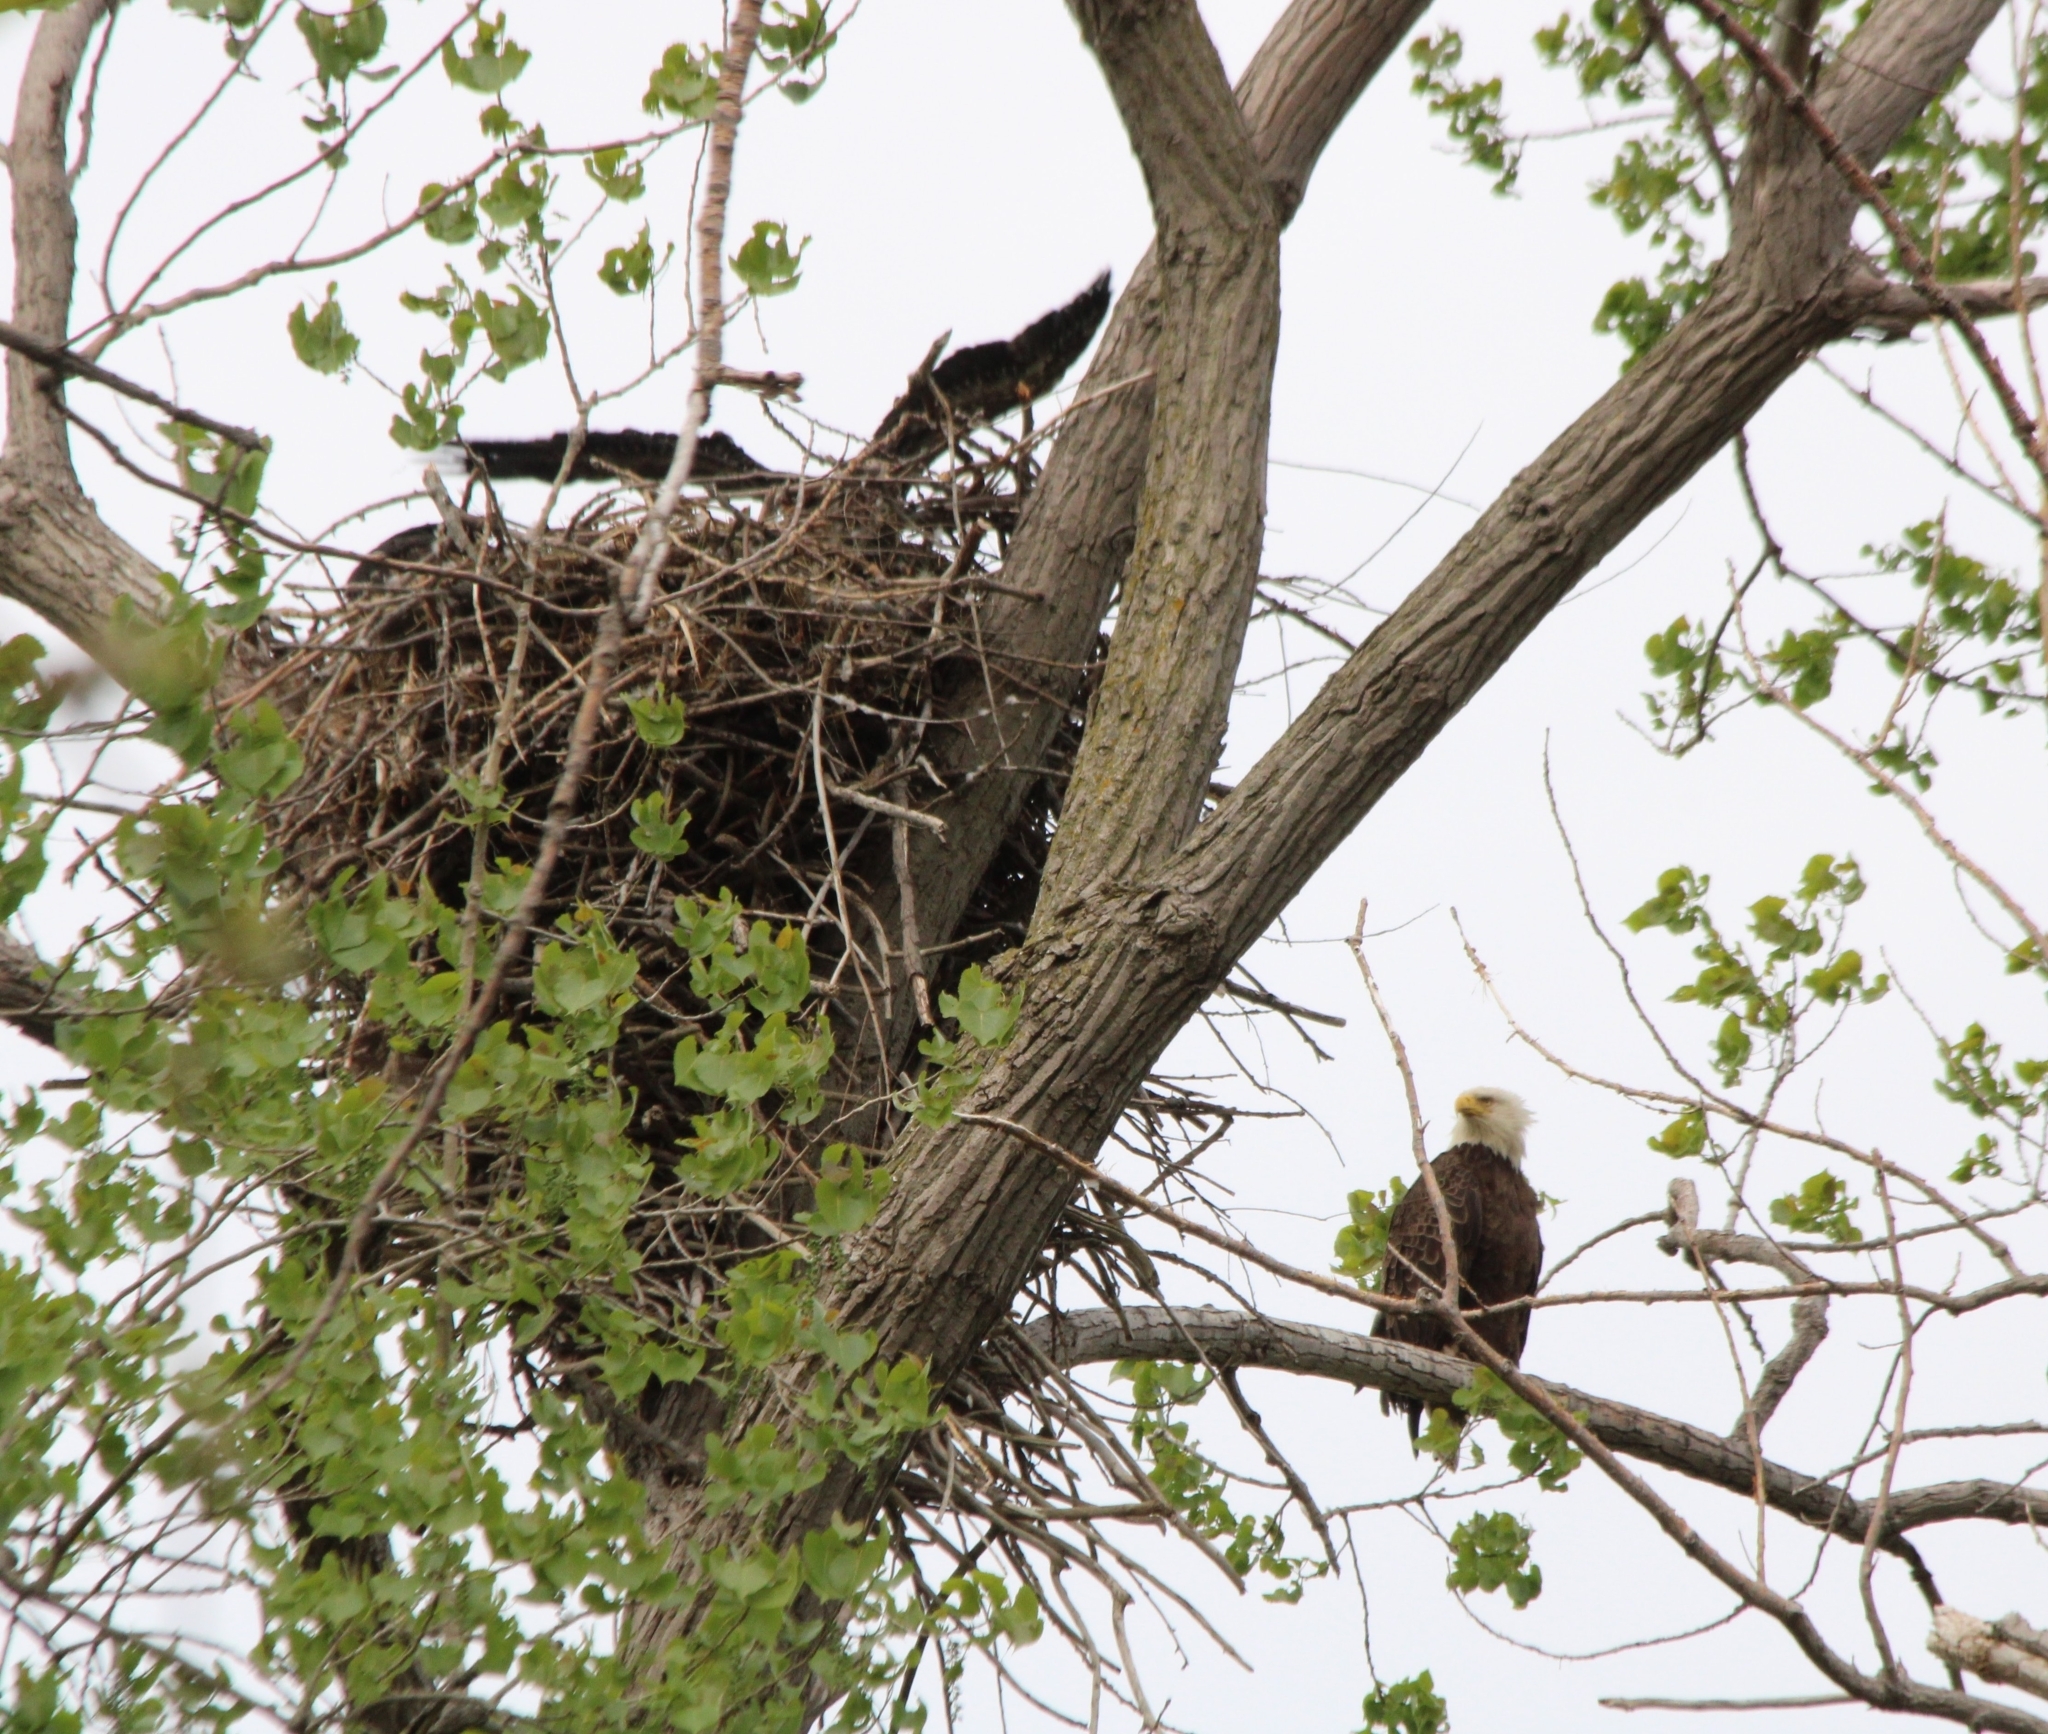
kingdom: Animalia
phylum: Chordata
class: Aves
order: Accipitriformes
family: Accipitridae
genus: Haliaeetus
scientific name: Haliaeetus leucocephalus
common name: Bald eagle
